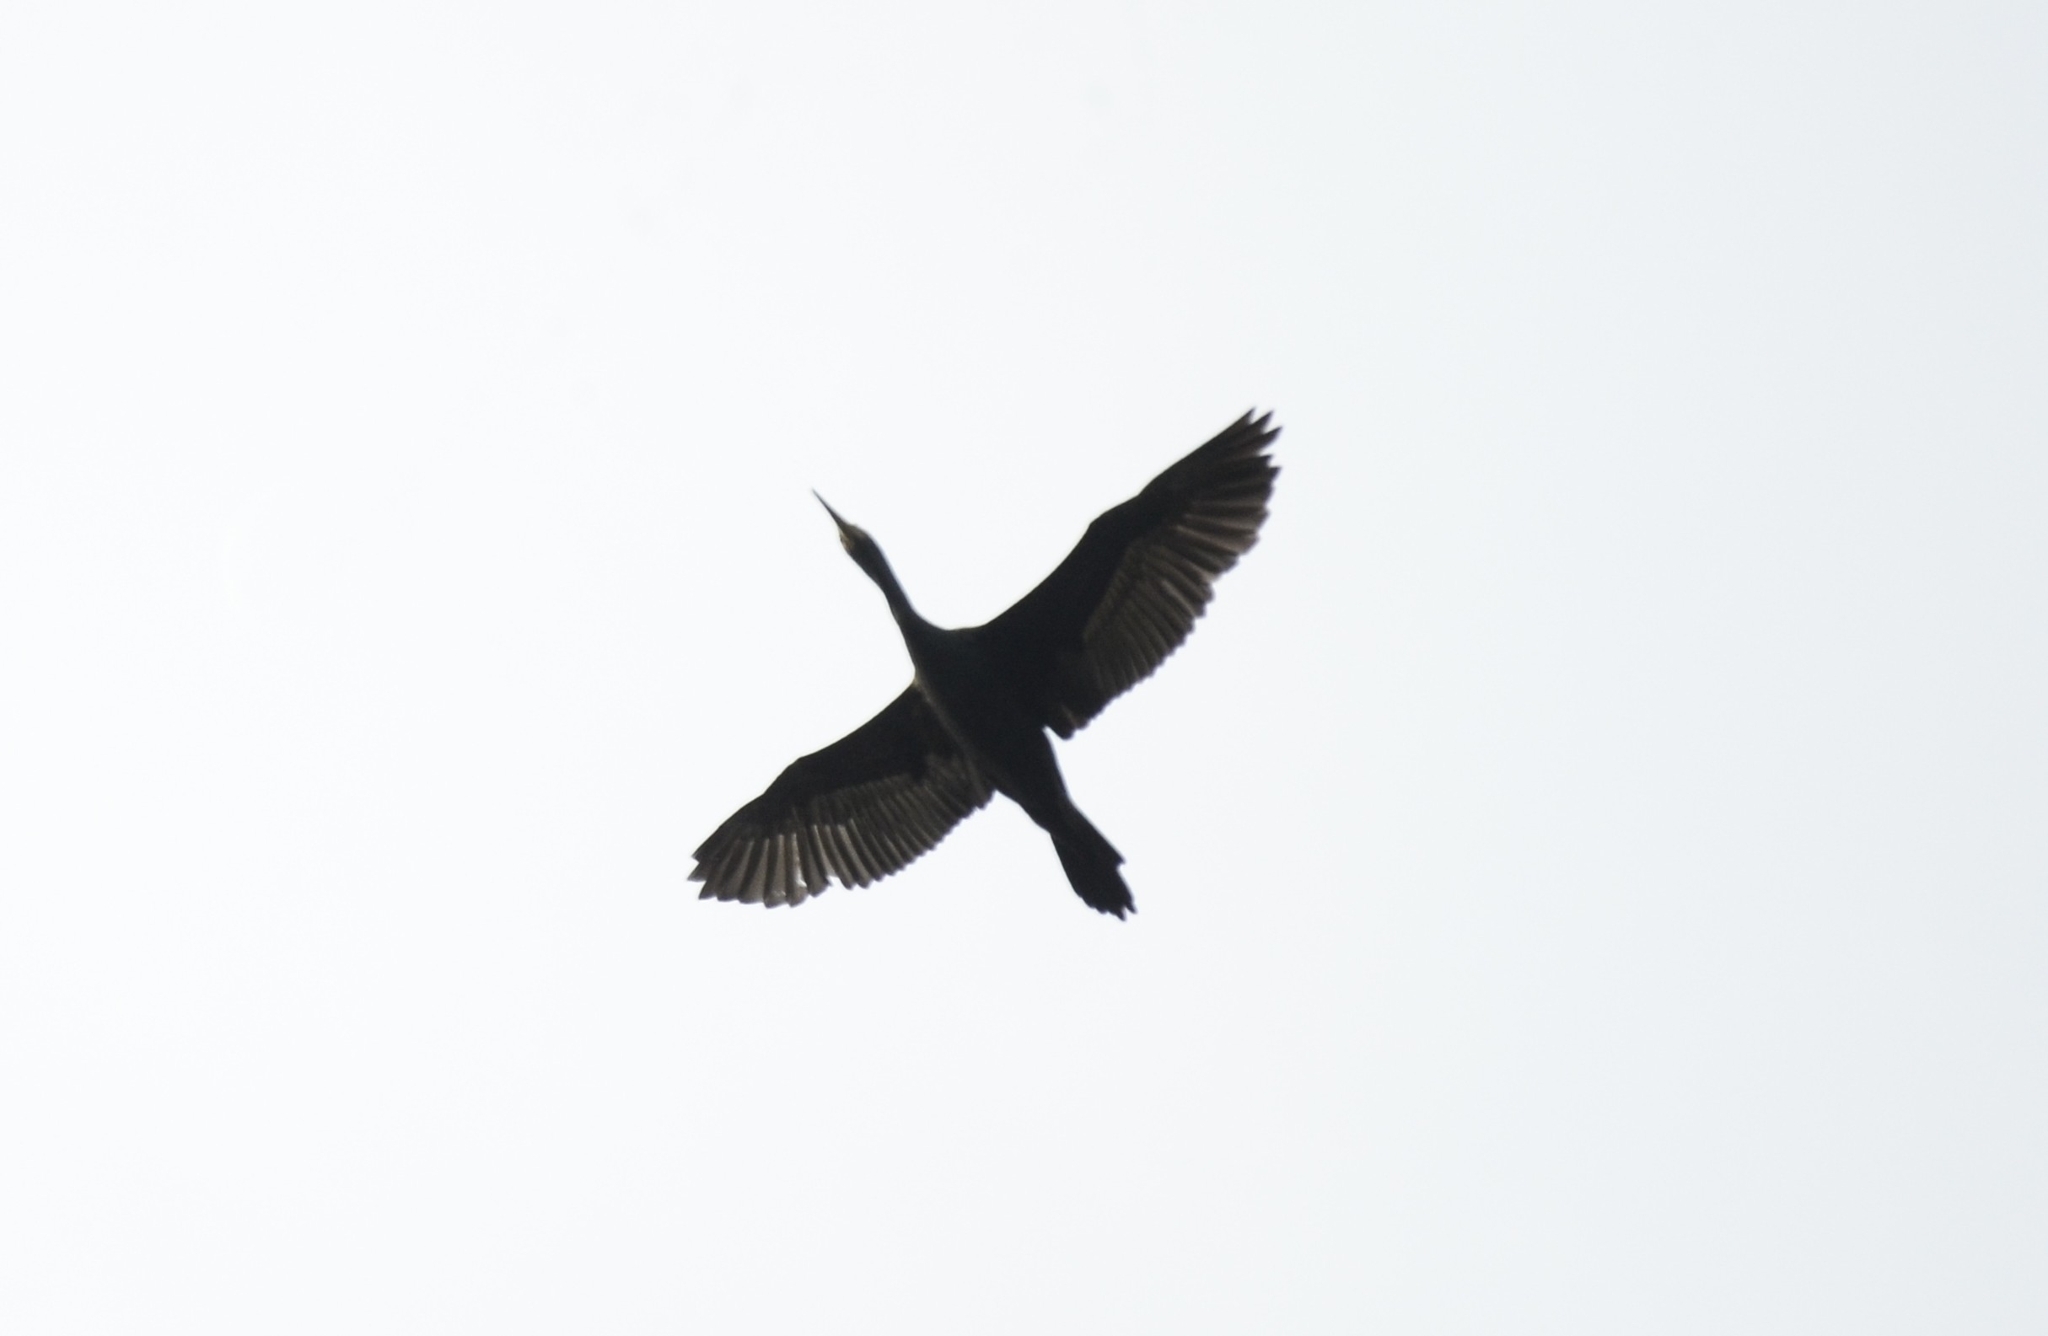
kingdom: Animalia
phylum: Chordata
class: Aves
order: Suliformes
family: Phalacrocoracidae
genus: Microcarbo
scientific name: Microcarbo niger
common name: Little cormorant
